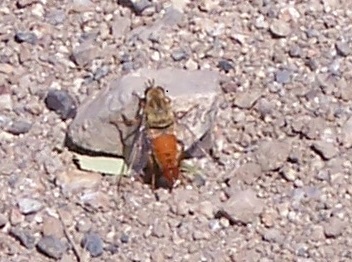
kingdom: Animalia
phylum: Arthropoda
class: Insecta
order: Diptera
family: Mydidae
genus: Rhaphiomidas
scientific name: Rhaphiomidas acton
